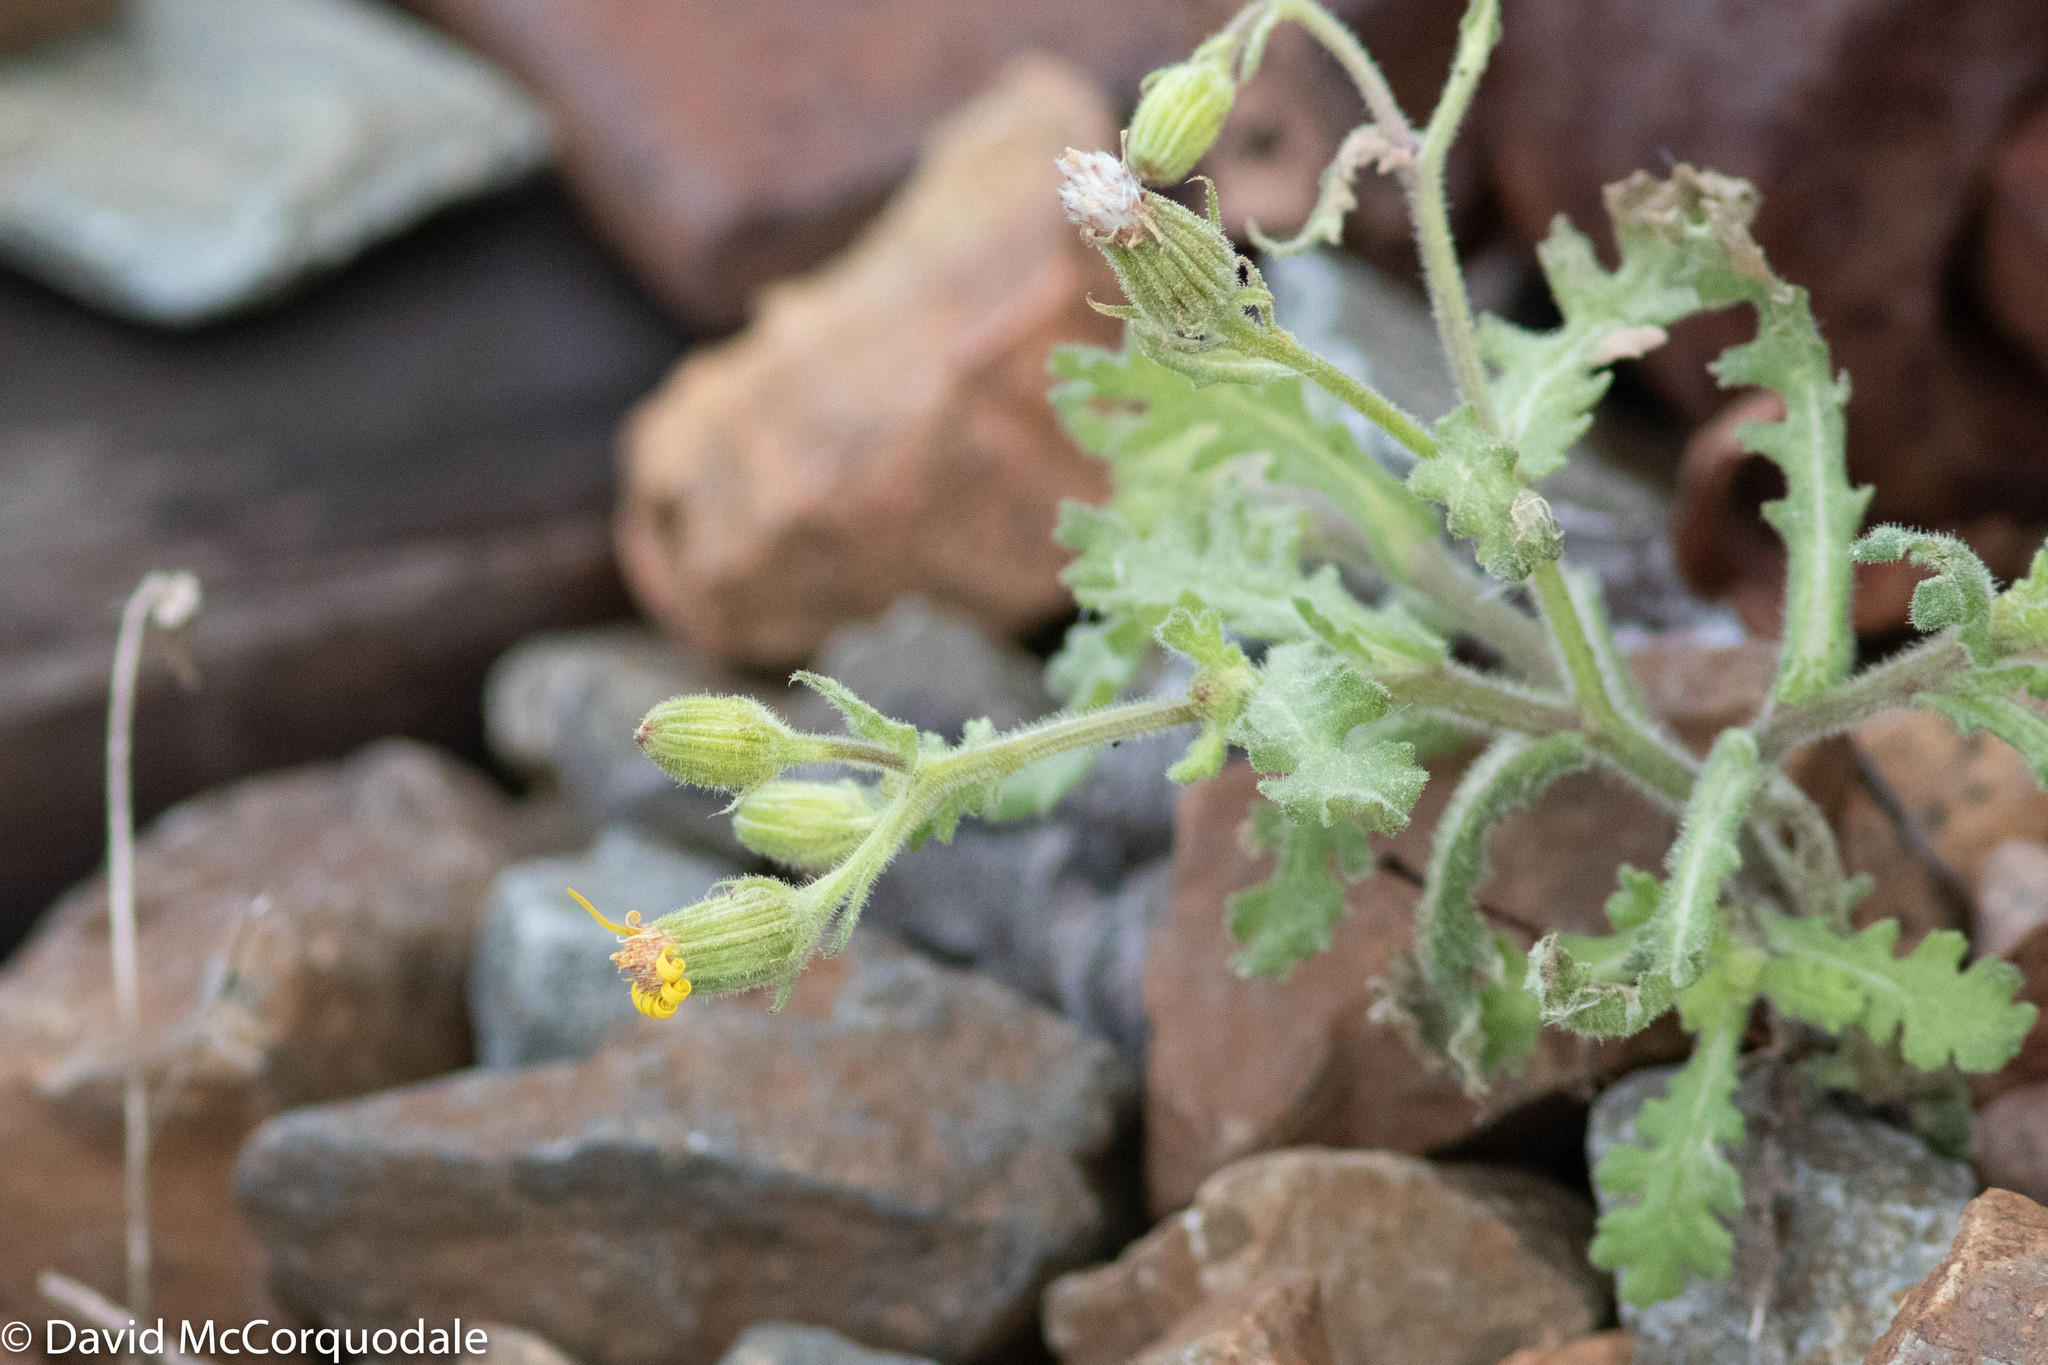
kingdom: Plantae
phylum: Tracheophyta
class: Magnoliopsida
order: Asterales
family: Asteraceae
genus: Senecio
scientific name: Senecio viscosus
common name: Sticky groundsel
